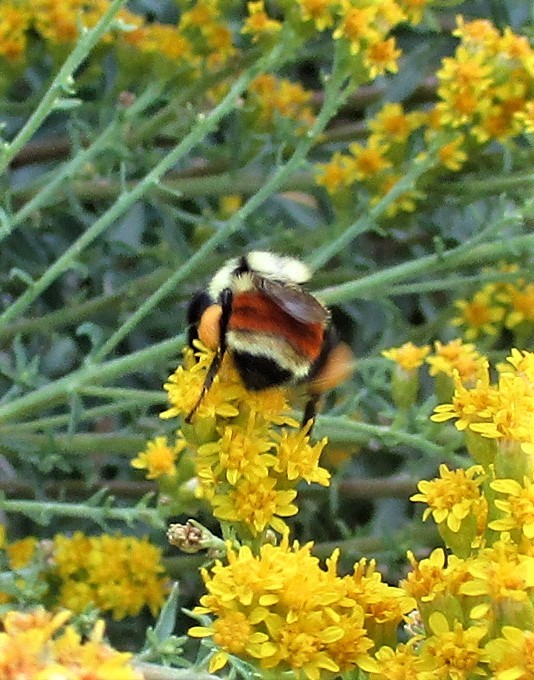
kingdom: Animalia
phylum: Arthropoda
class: Insecta
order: Hymenoptera
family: Apidae
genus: Bombus
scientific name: Bombus huntii
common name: Hunt bumble bee
